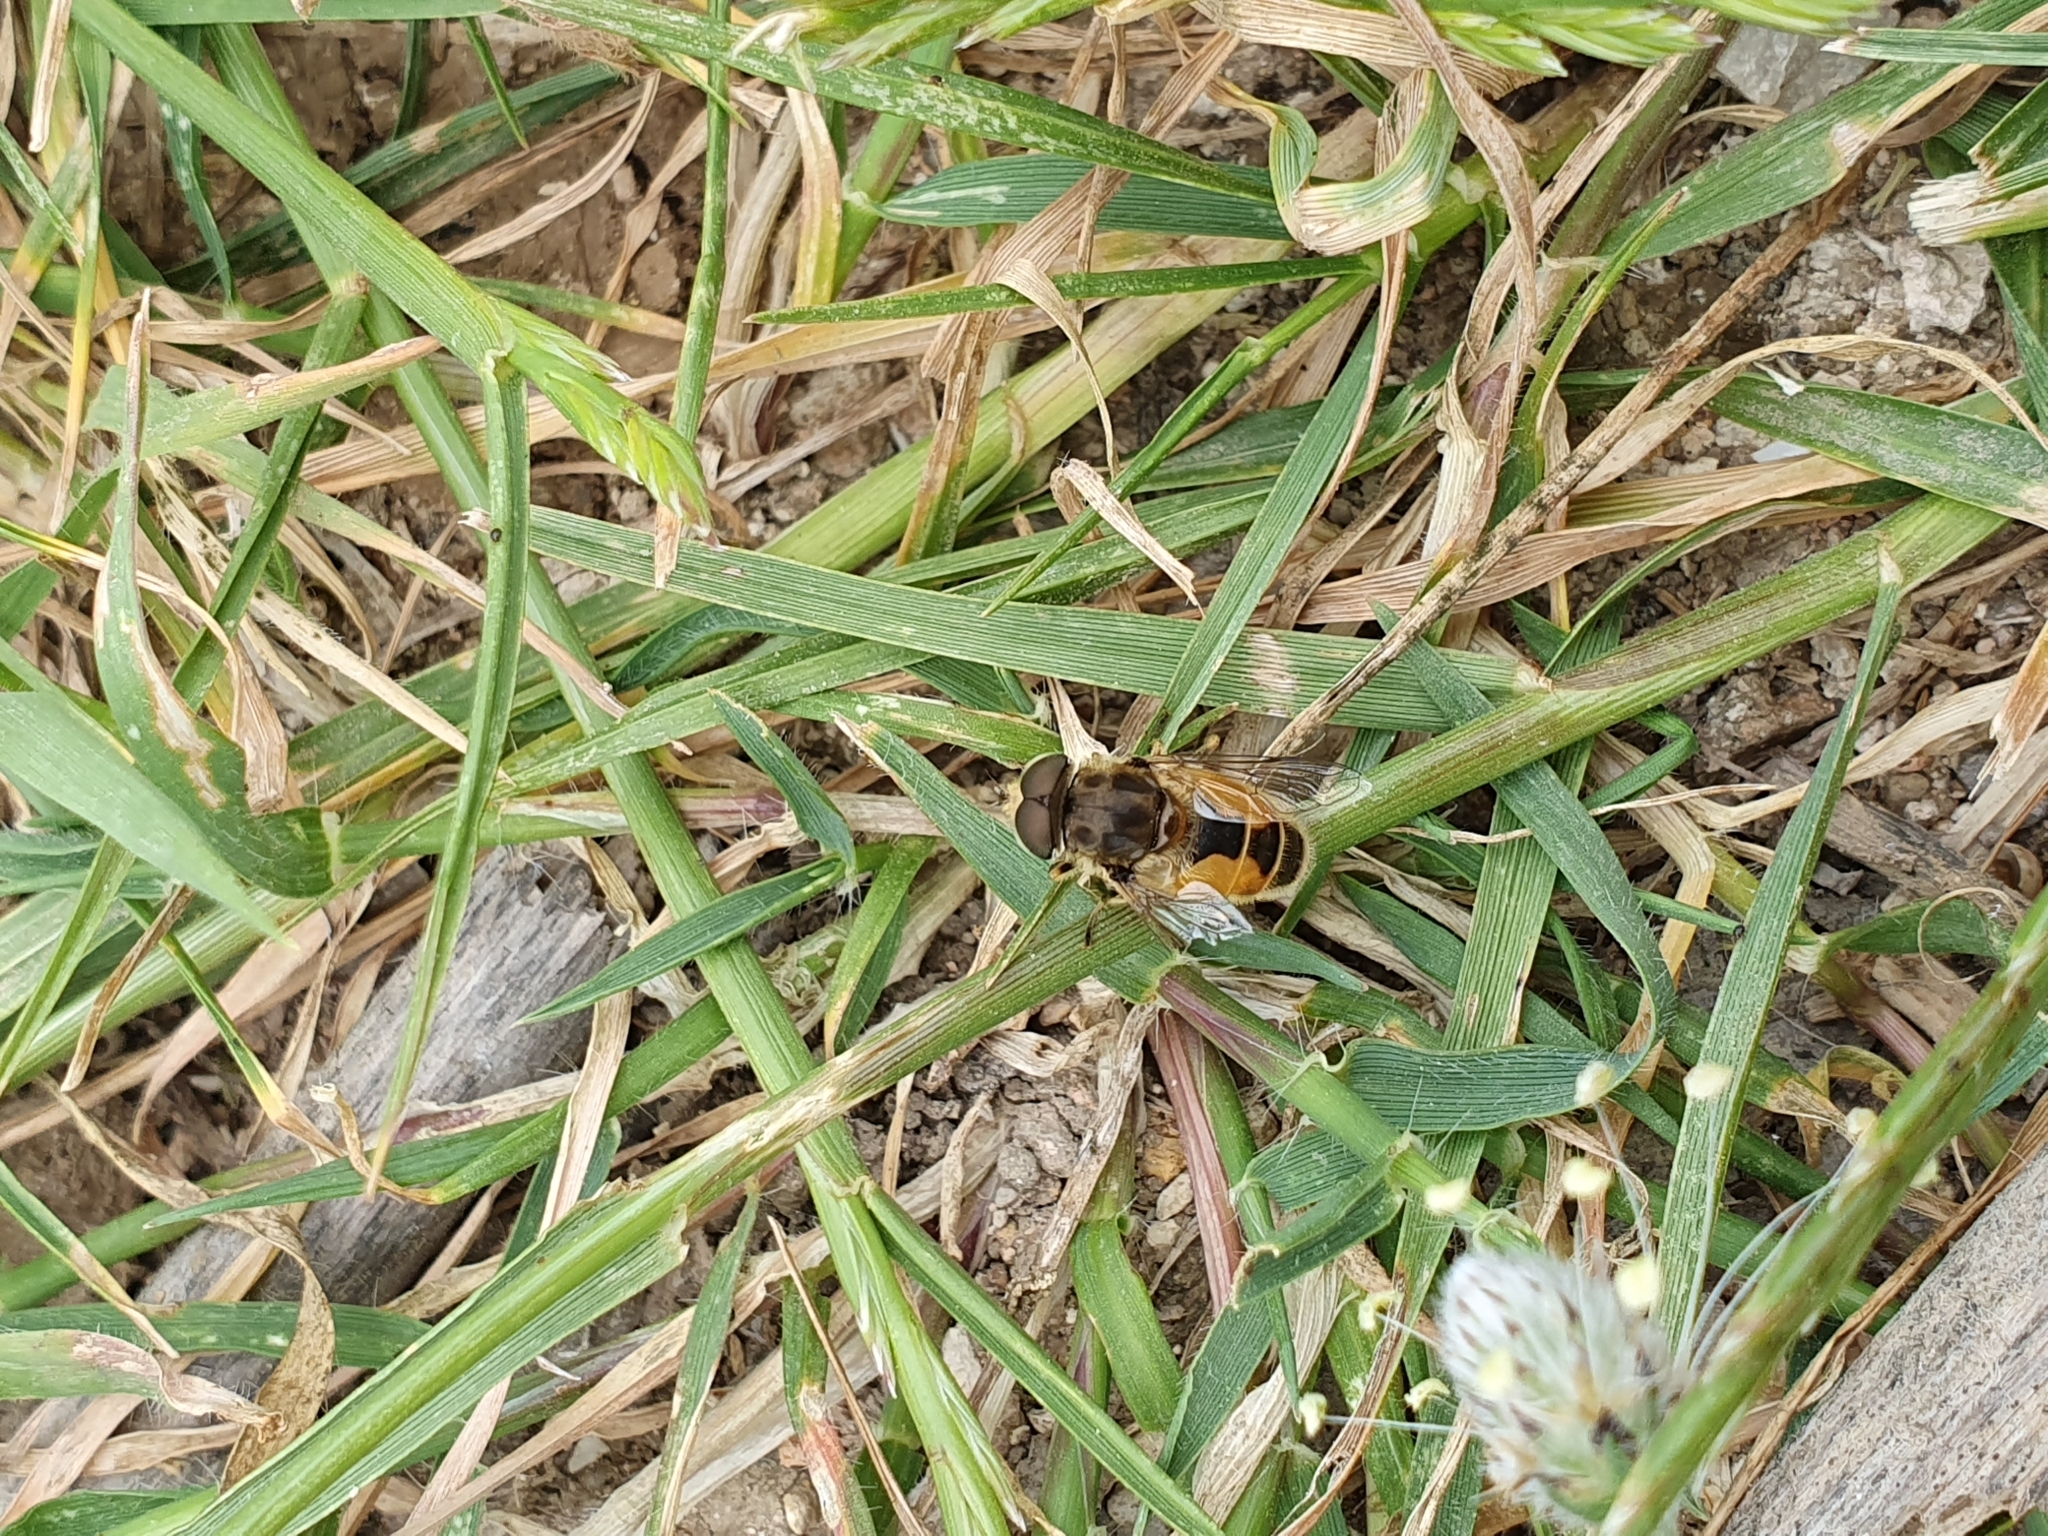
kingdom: Animalia
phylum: Arthropoda
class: Insecta
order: Diptera
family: Syrphidae
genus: Eristalis
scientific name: Eristalis arbustorum
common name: Hover fly
